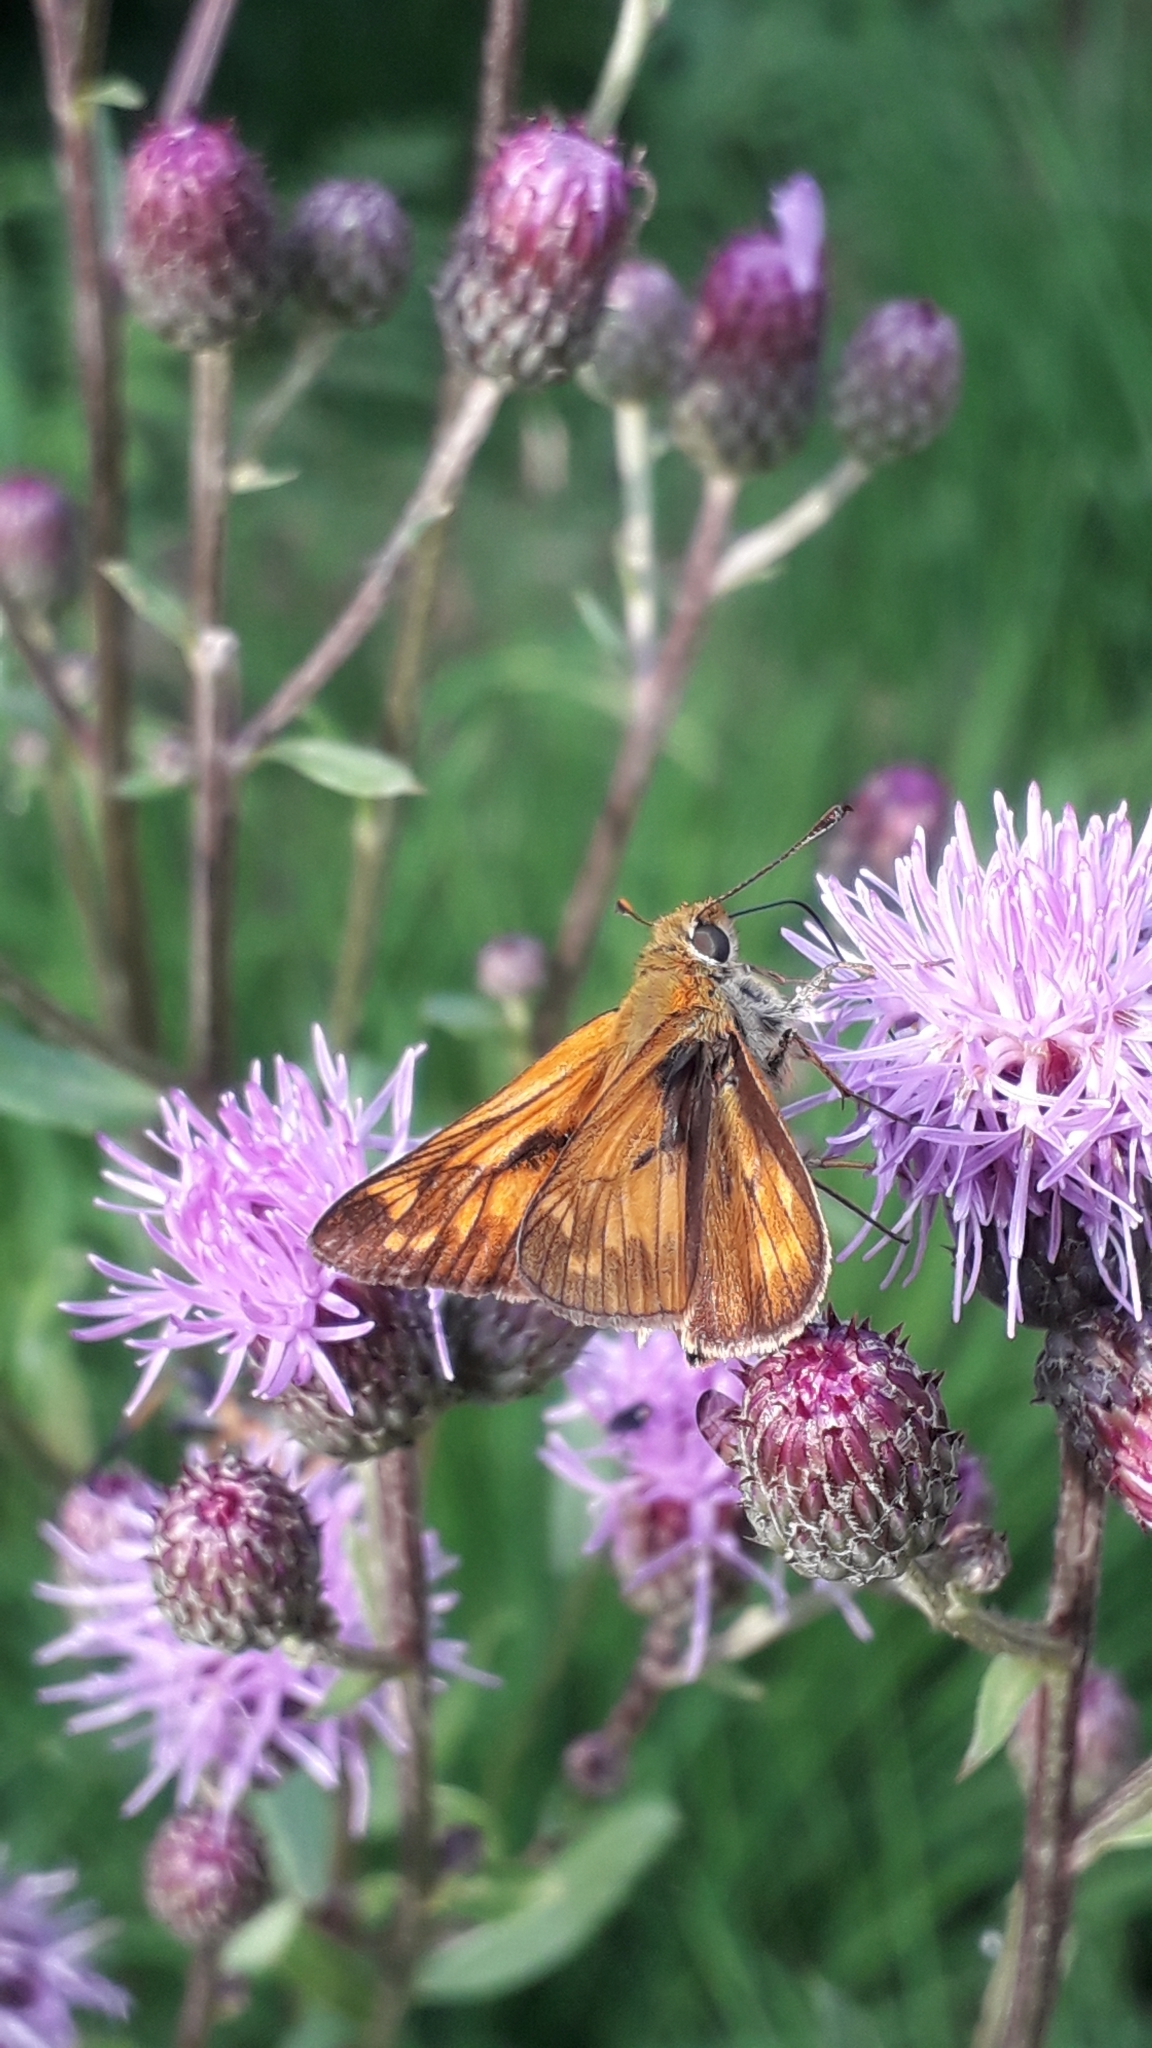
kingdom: Animalia
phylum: Arthropoda
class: Insecta
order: Lepidoptera
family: Hesperiidae
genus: Ochlodes
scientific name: Ochlodes venata
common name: Large skipper
